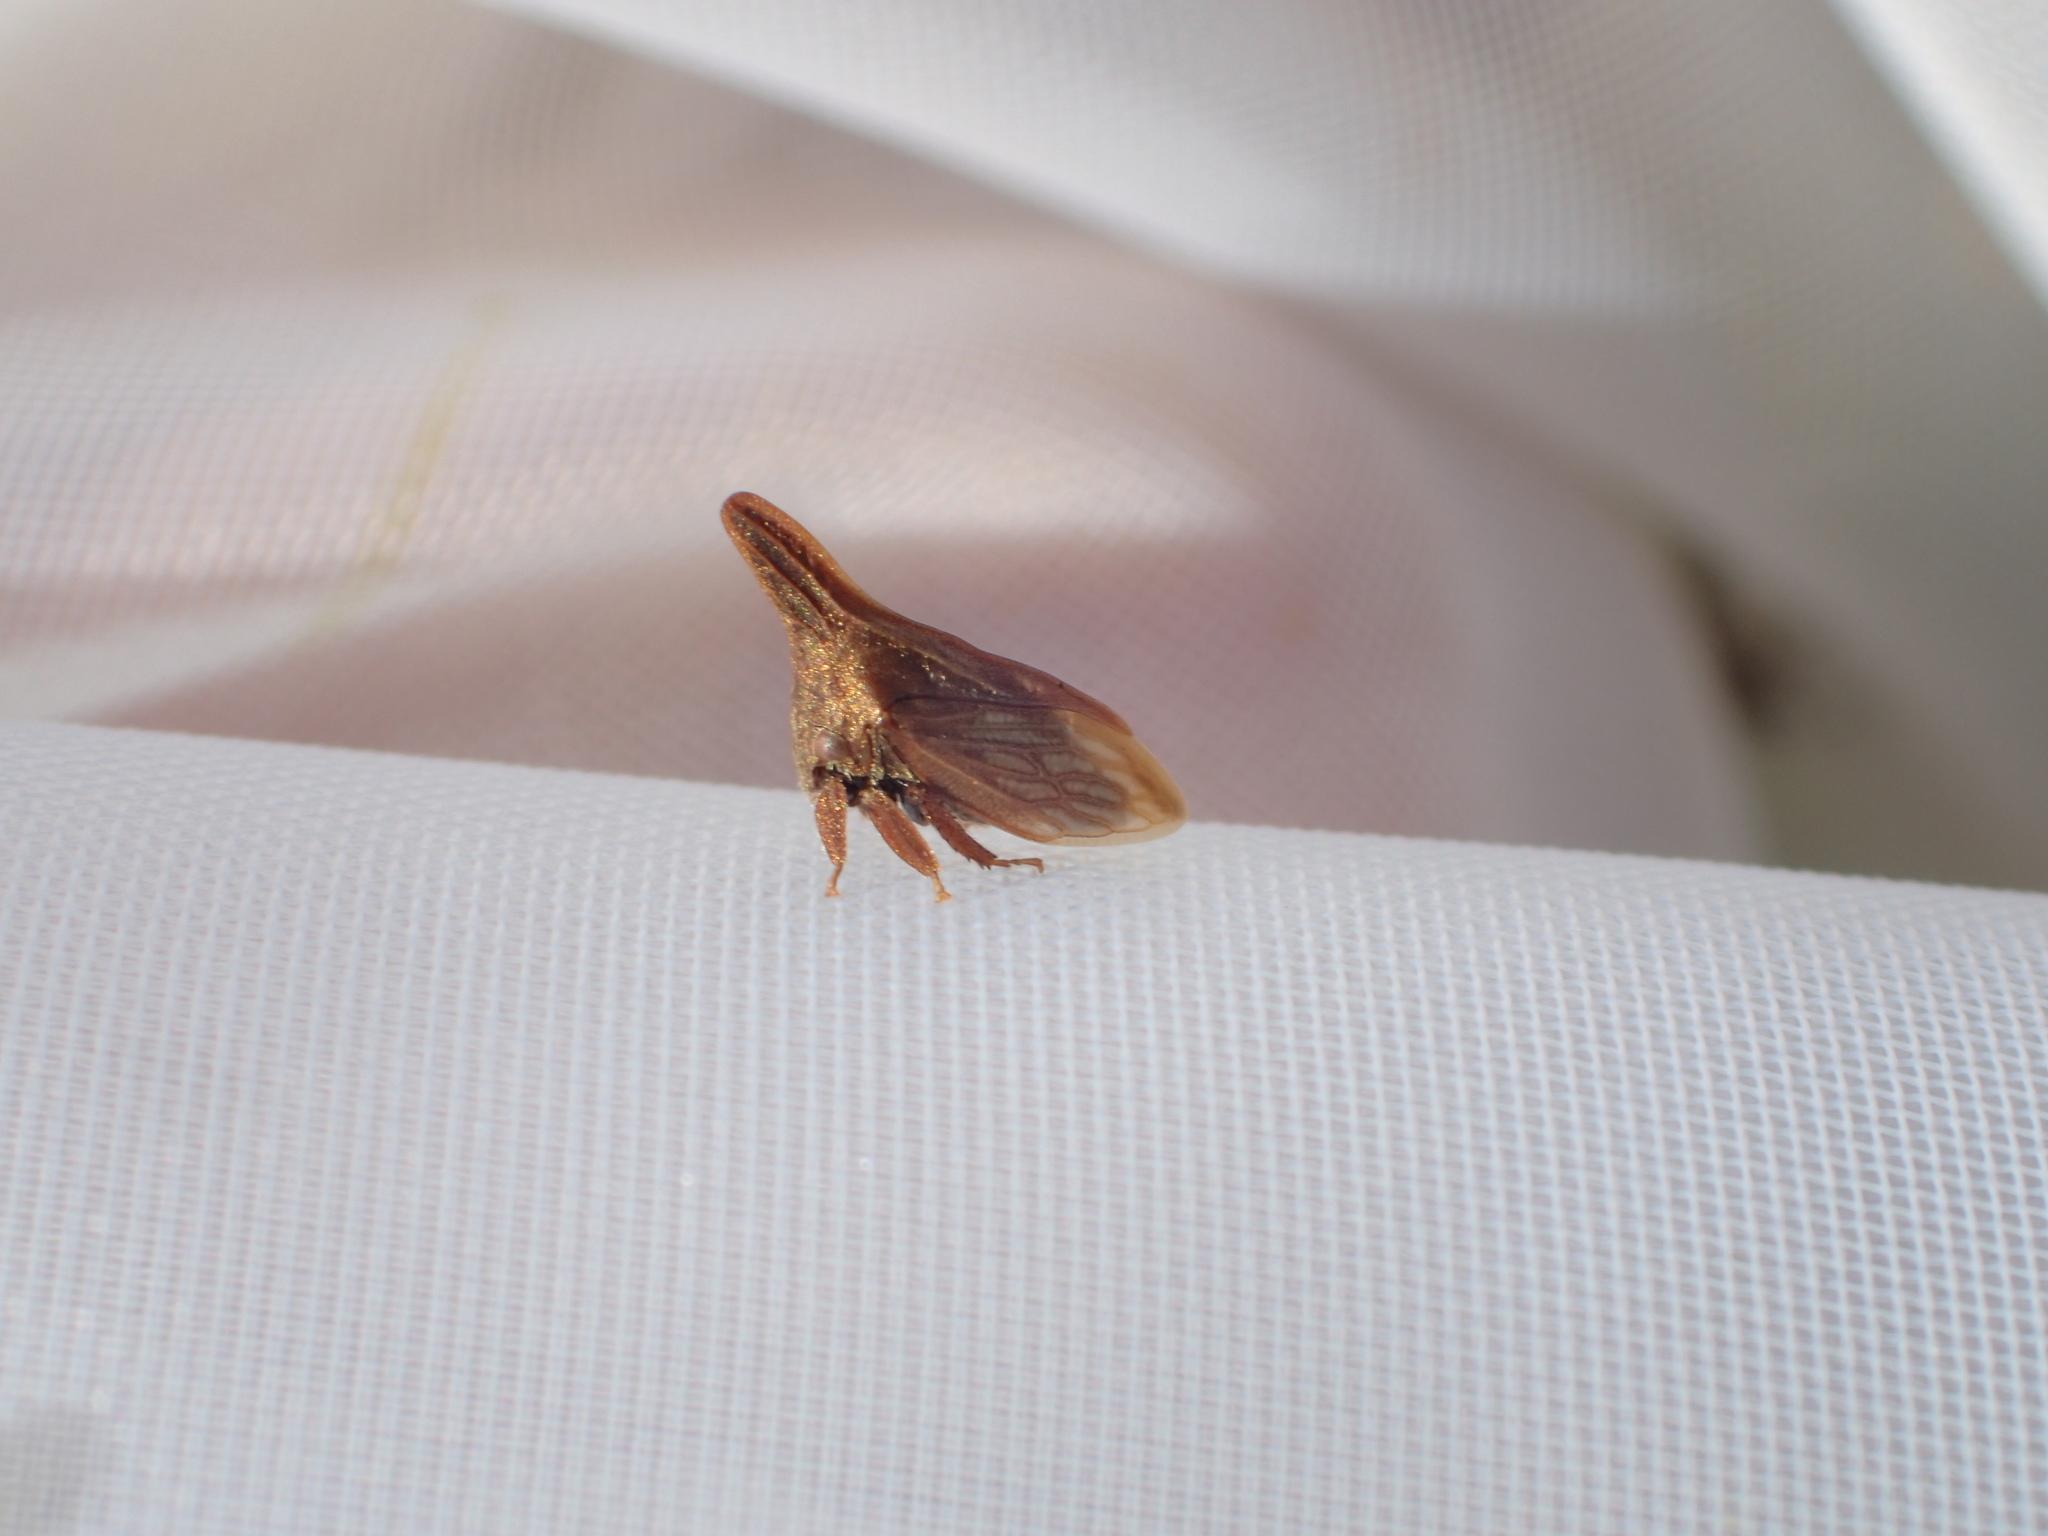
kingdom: Animalia
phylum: Arthropoda
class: Insecta
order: Hemiptera
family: Membracidae
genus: Enchenopa
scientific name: Enchenopa latipes
